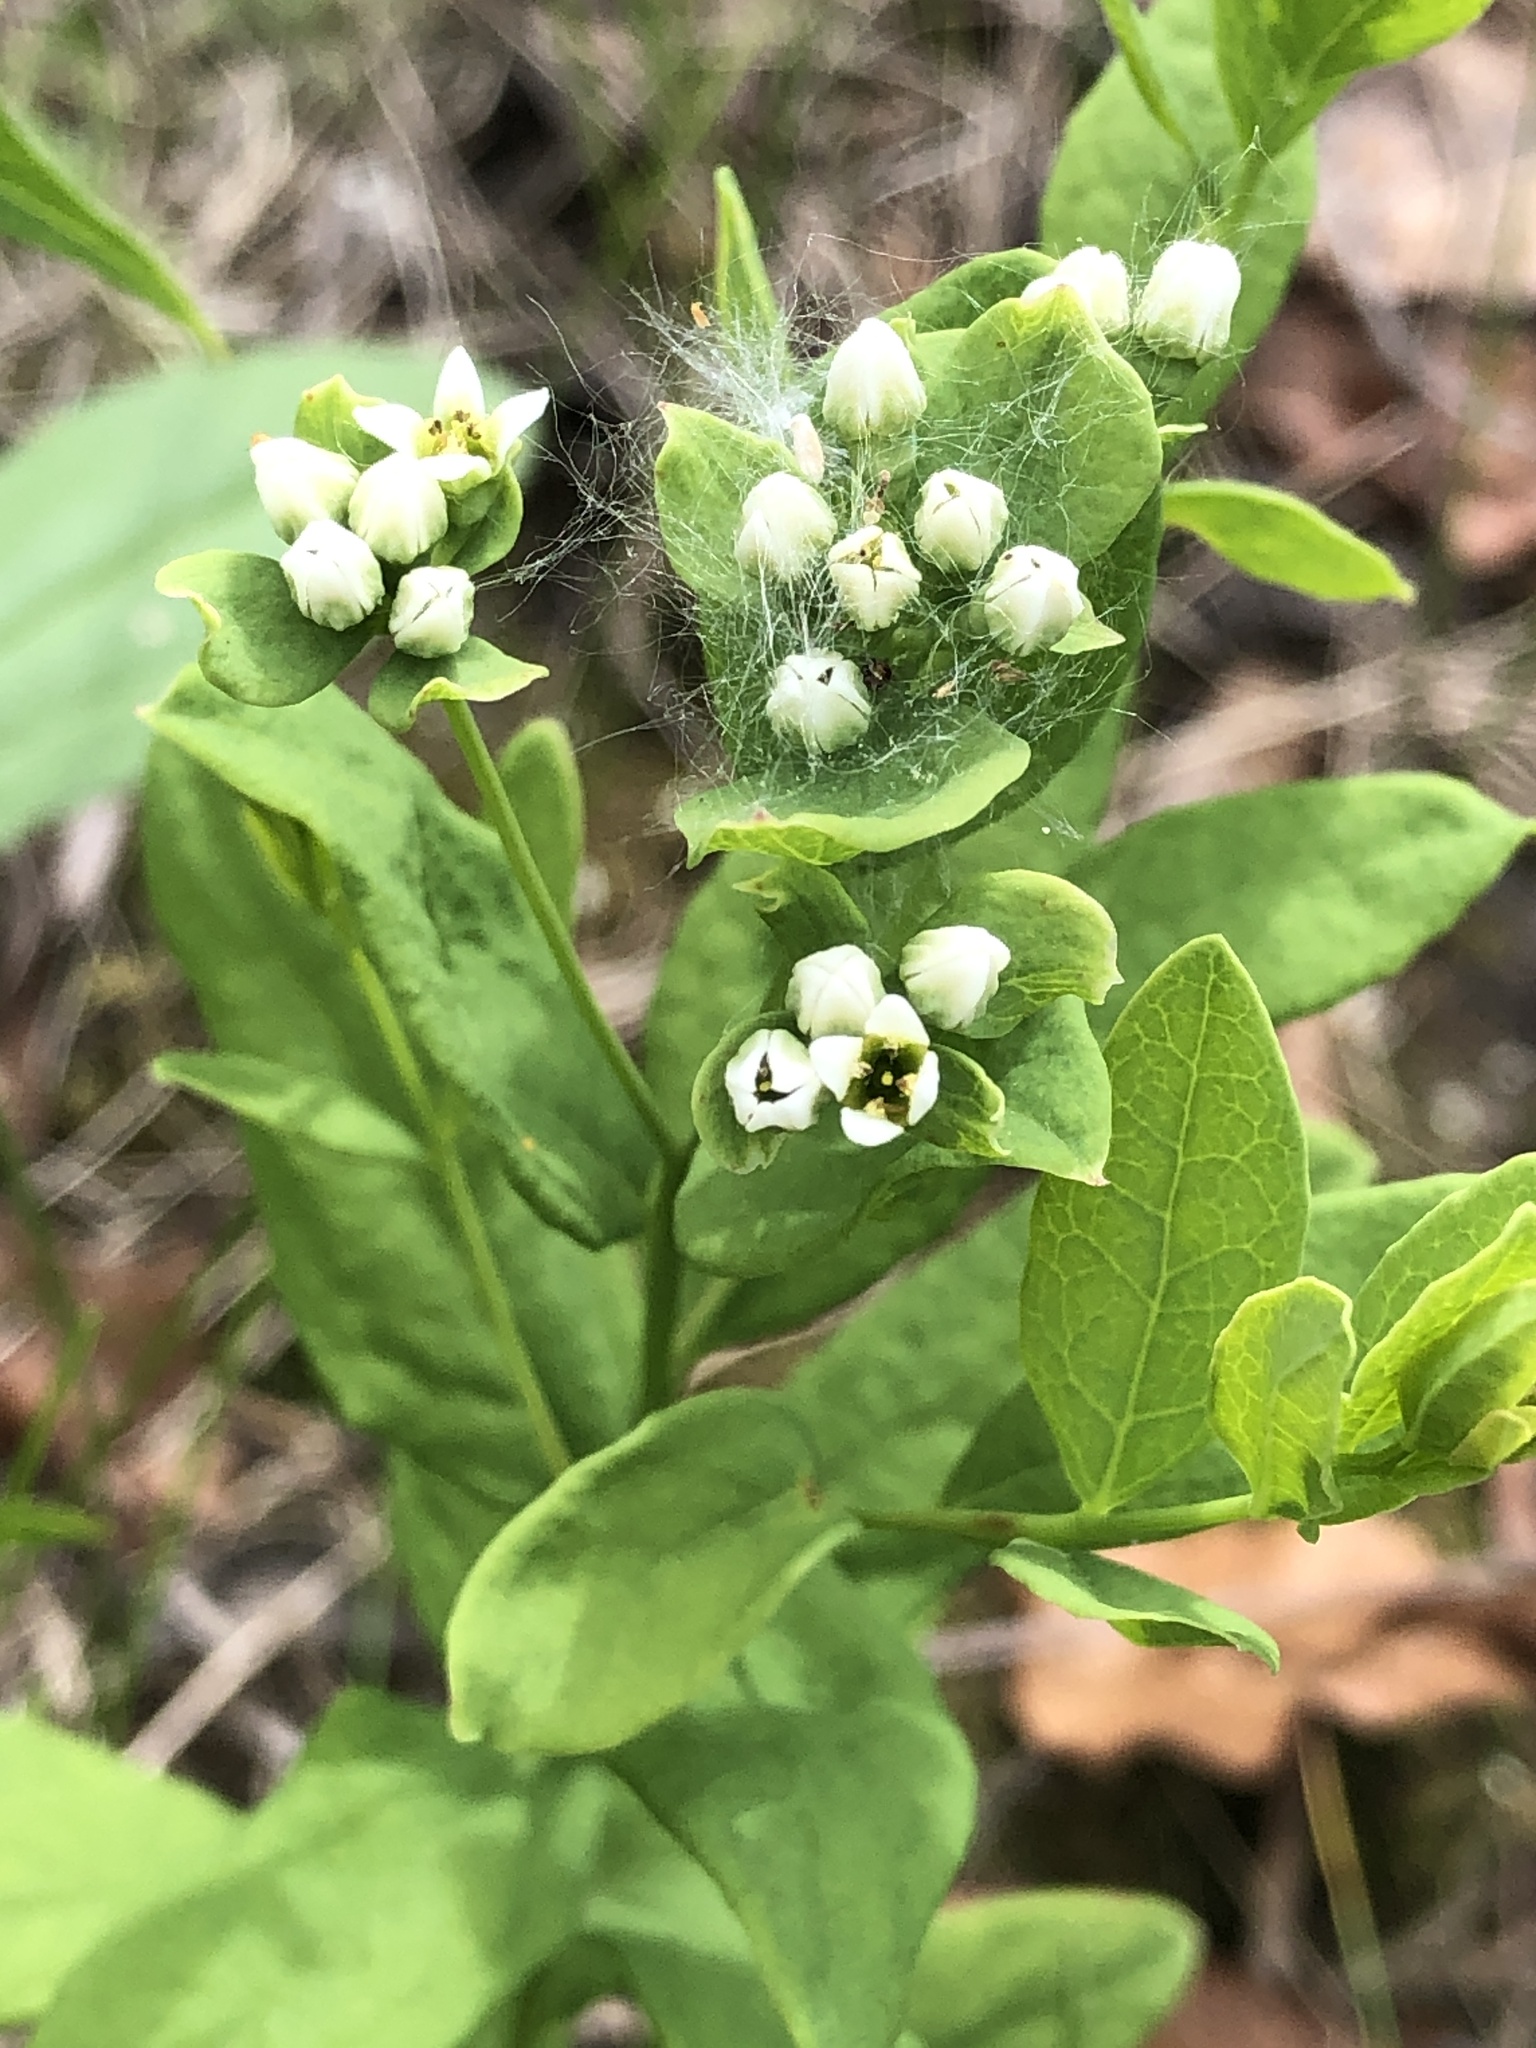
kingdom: Plantae
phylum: Tracheophyta
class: Magnoliopsida
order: Santalales
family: Comandraceae
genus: Comandra
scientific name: Comandra umbellata
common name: Bastard toadflax
